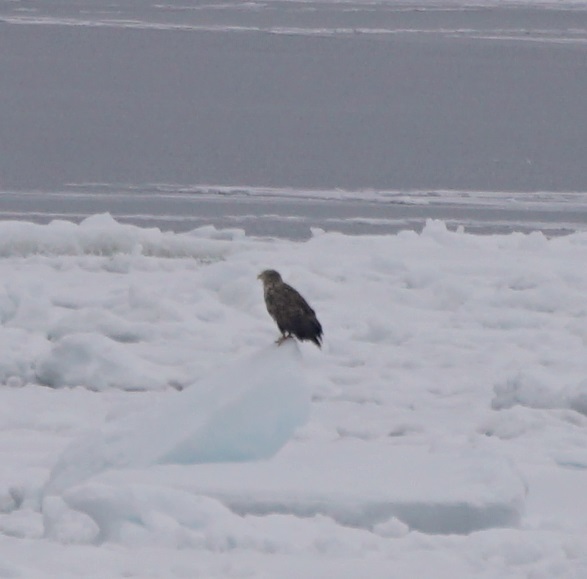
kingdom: Animalia
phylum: Chordata
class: Aves
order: Accipitriformes
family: Accipitridae
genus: Haliaeetus
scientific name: Haliaeetus albicilla
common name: White-tailed eagle
